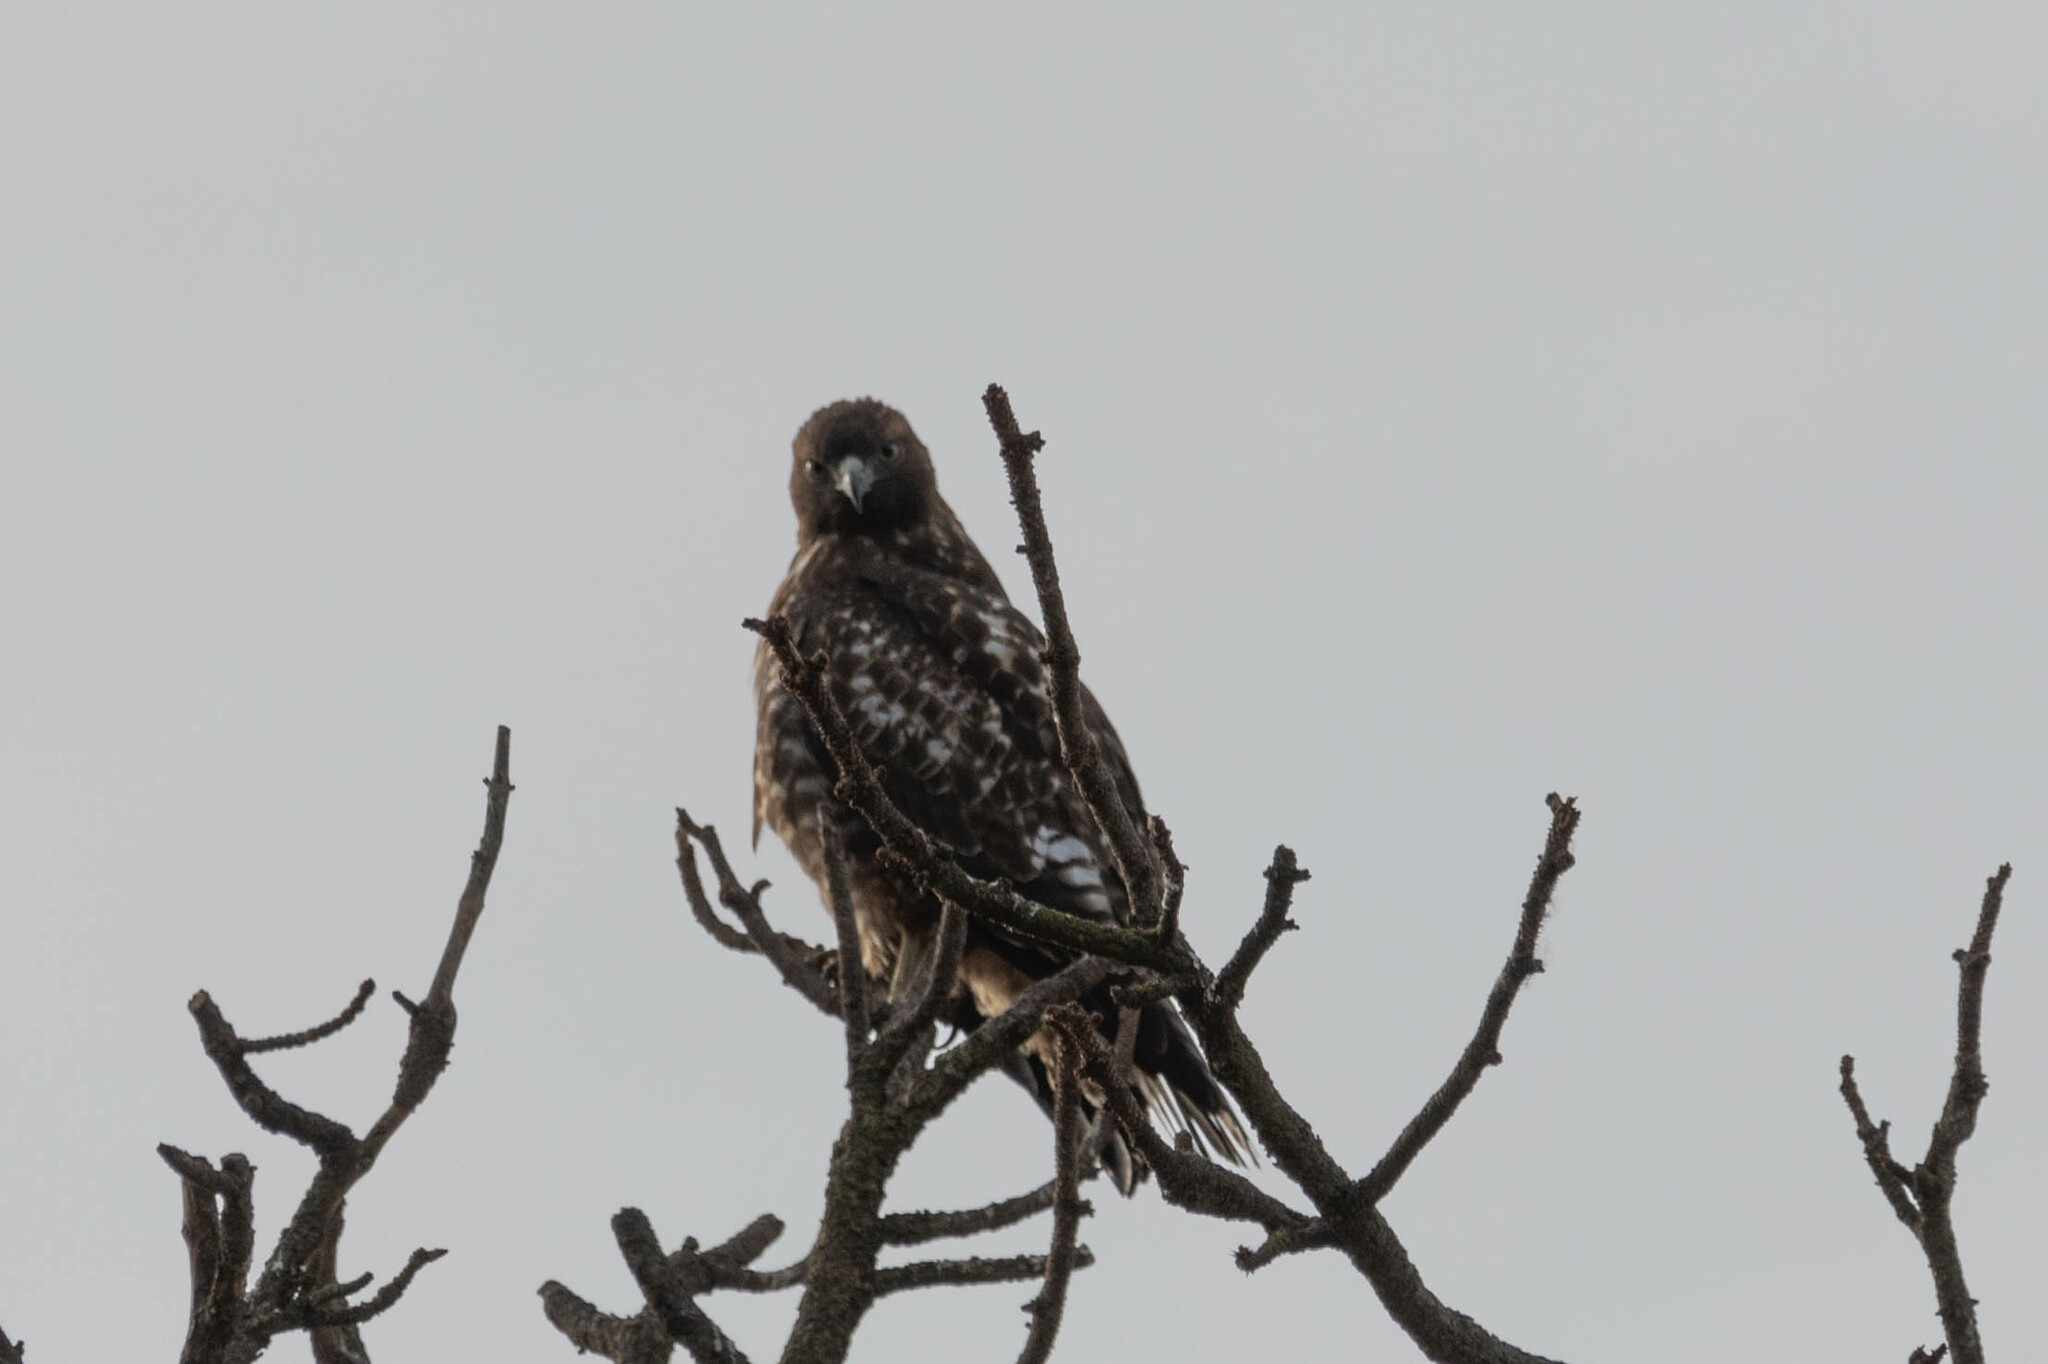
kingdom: Animalia
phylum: Chordata
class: Aves
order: Accipitriformes
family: Accipitridae
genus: Buteo
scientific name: Buteo jamaicensis
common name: Red-tailed hawk
